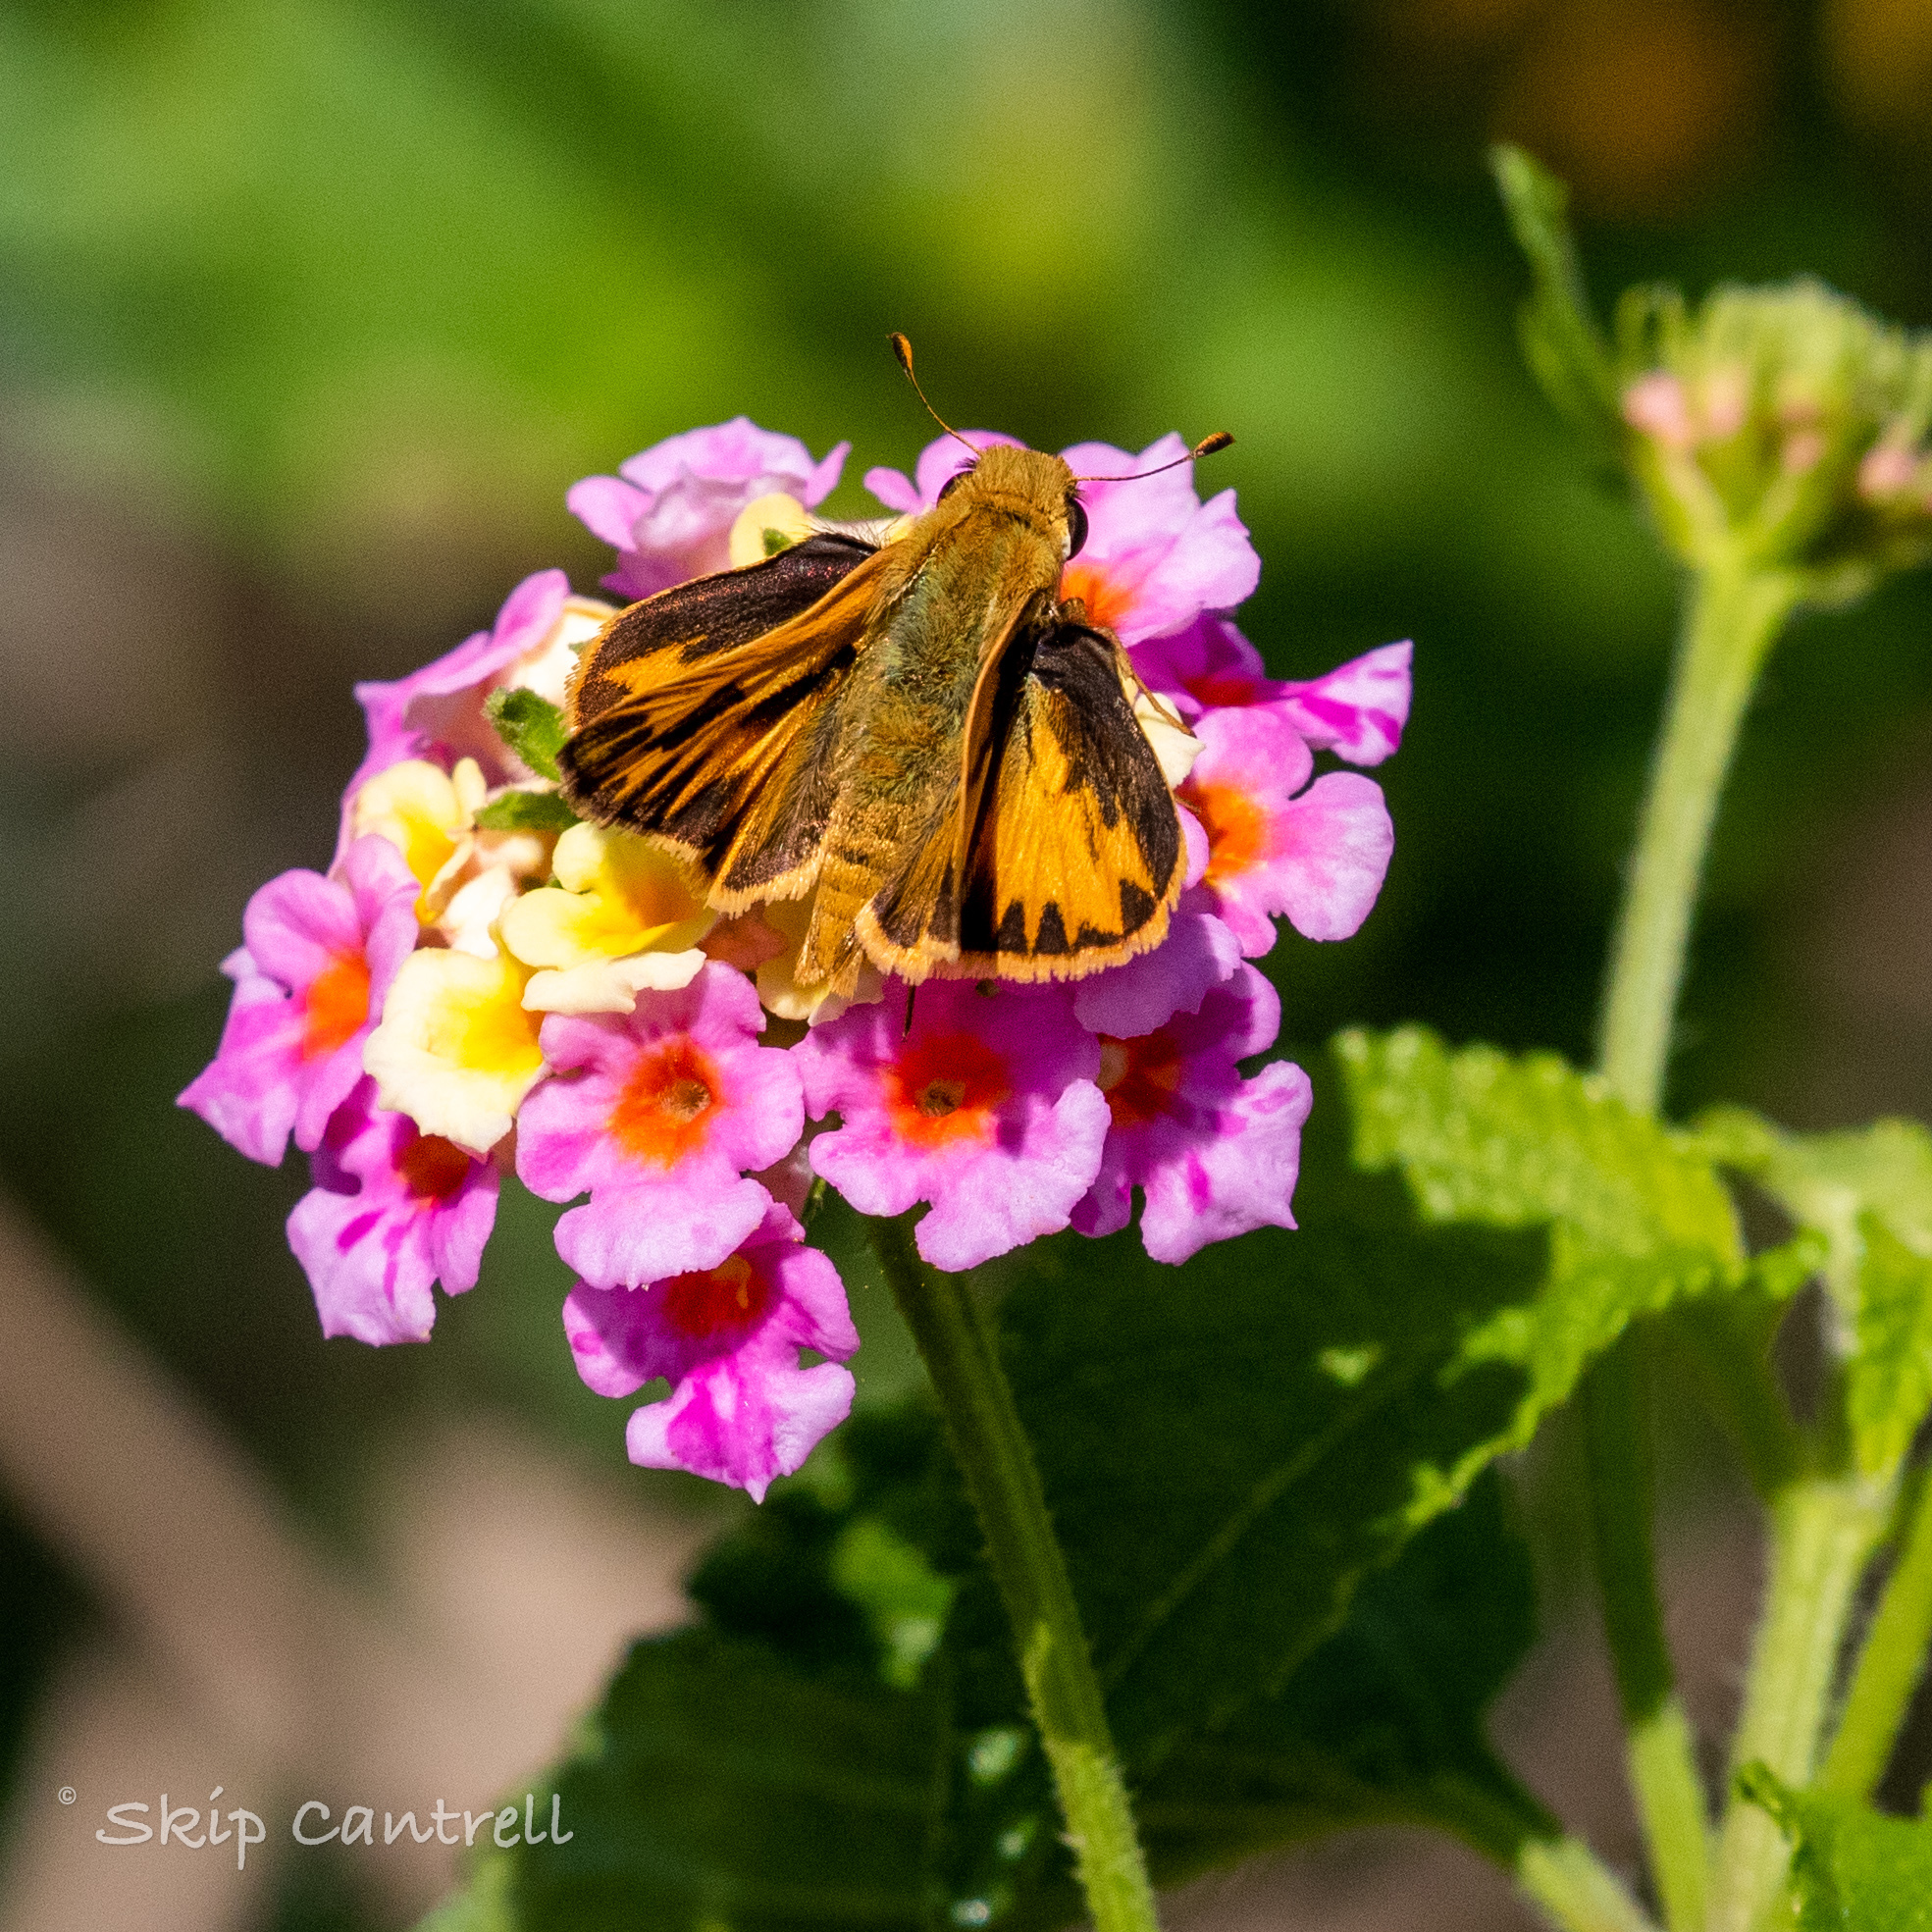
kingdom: Animalia
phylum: Arthropoda
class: Insecta
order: Lepidoptera
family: Hesperiidae
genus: Hylephila
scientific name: Hylephila phyleus
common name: Fiery skipper
